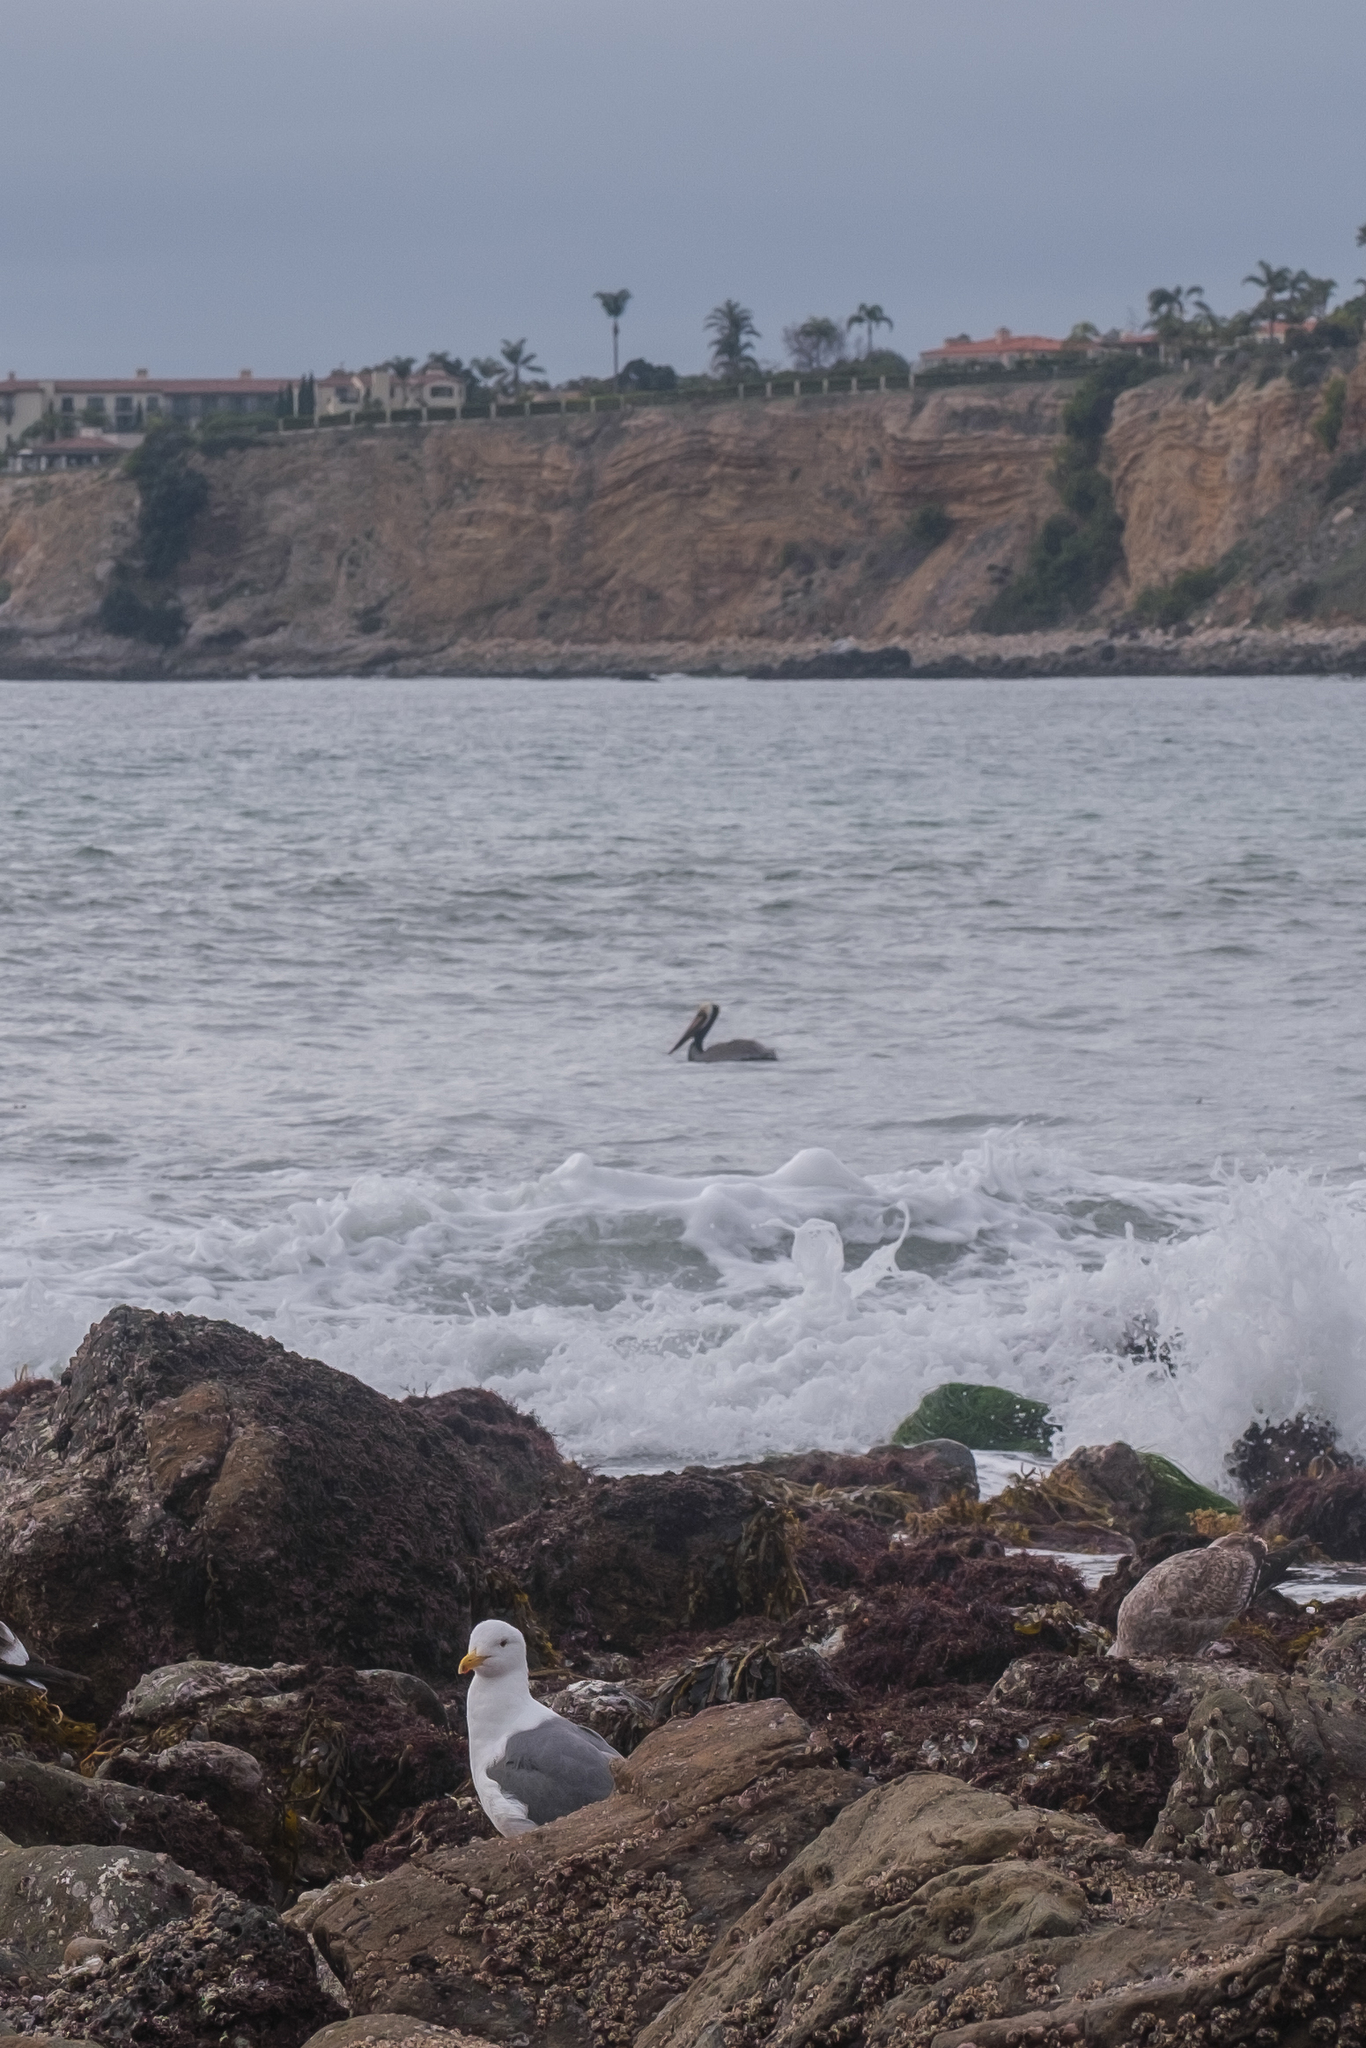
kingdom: Animalia
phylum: Chordata
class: Aves
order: Pelecaniformes
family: Pelecanidae
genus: Pelecanus
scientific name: Pelecanus occidentalis
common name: Brown pelican
